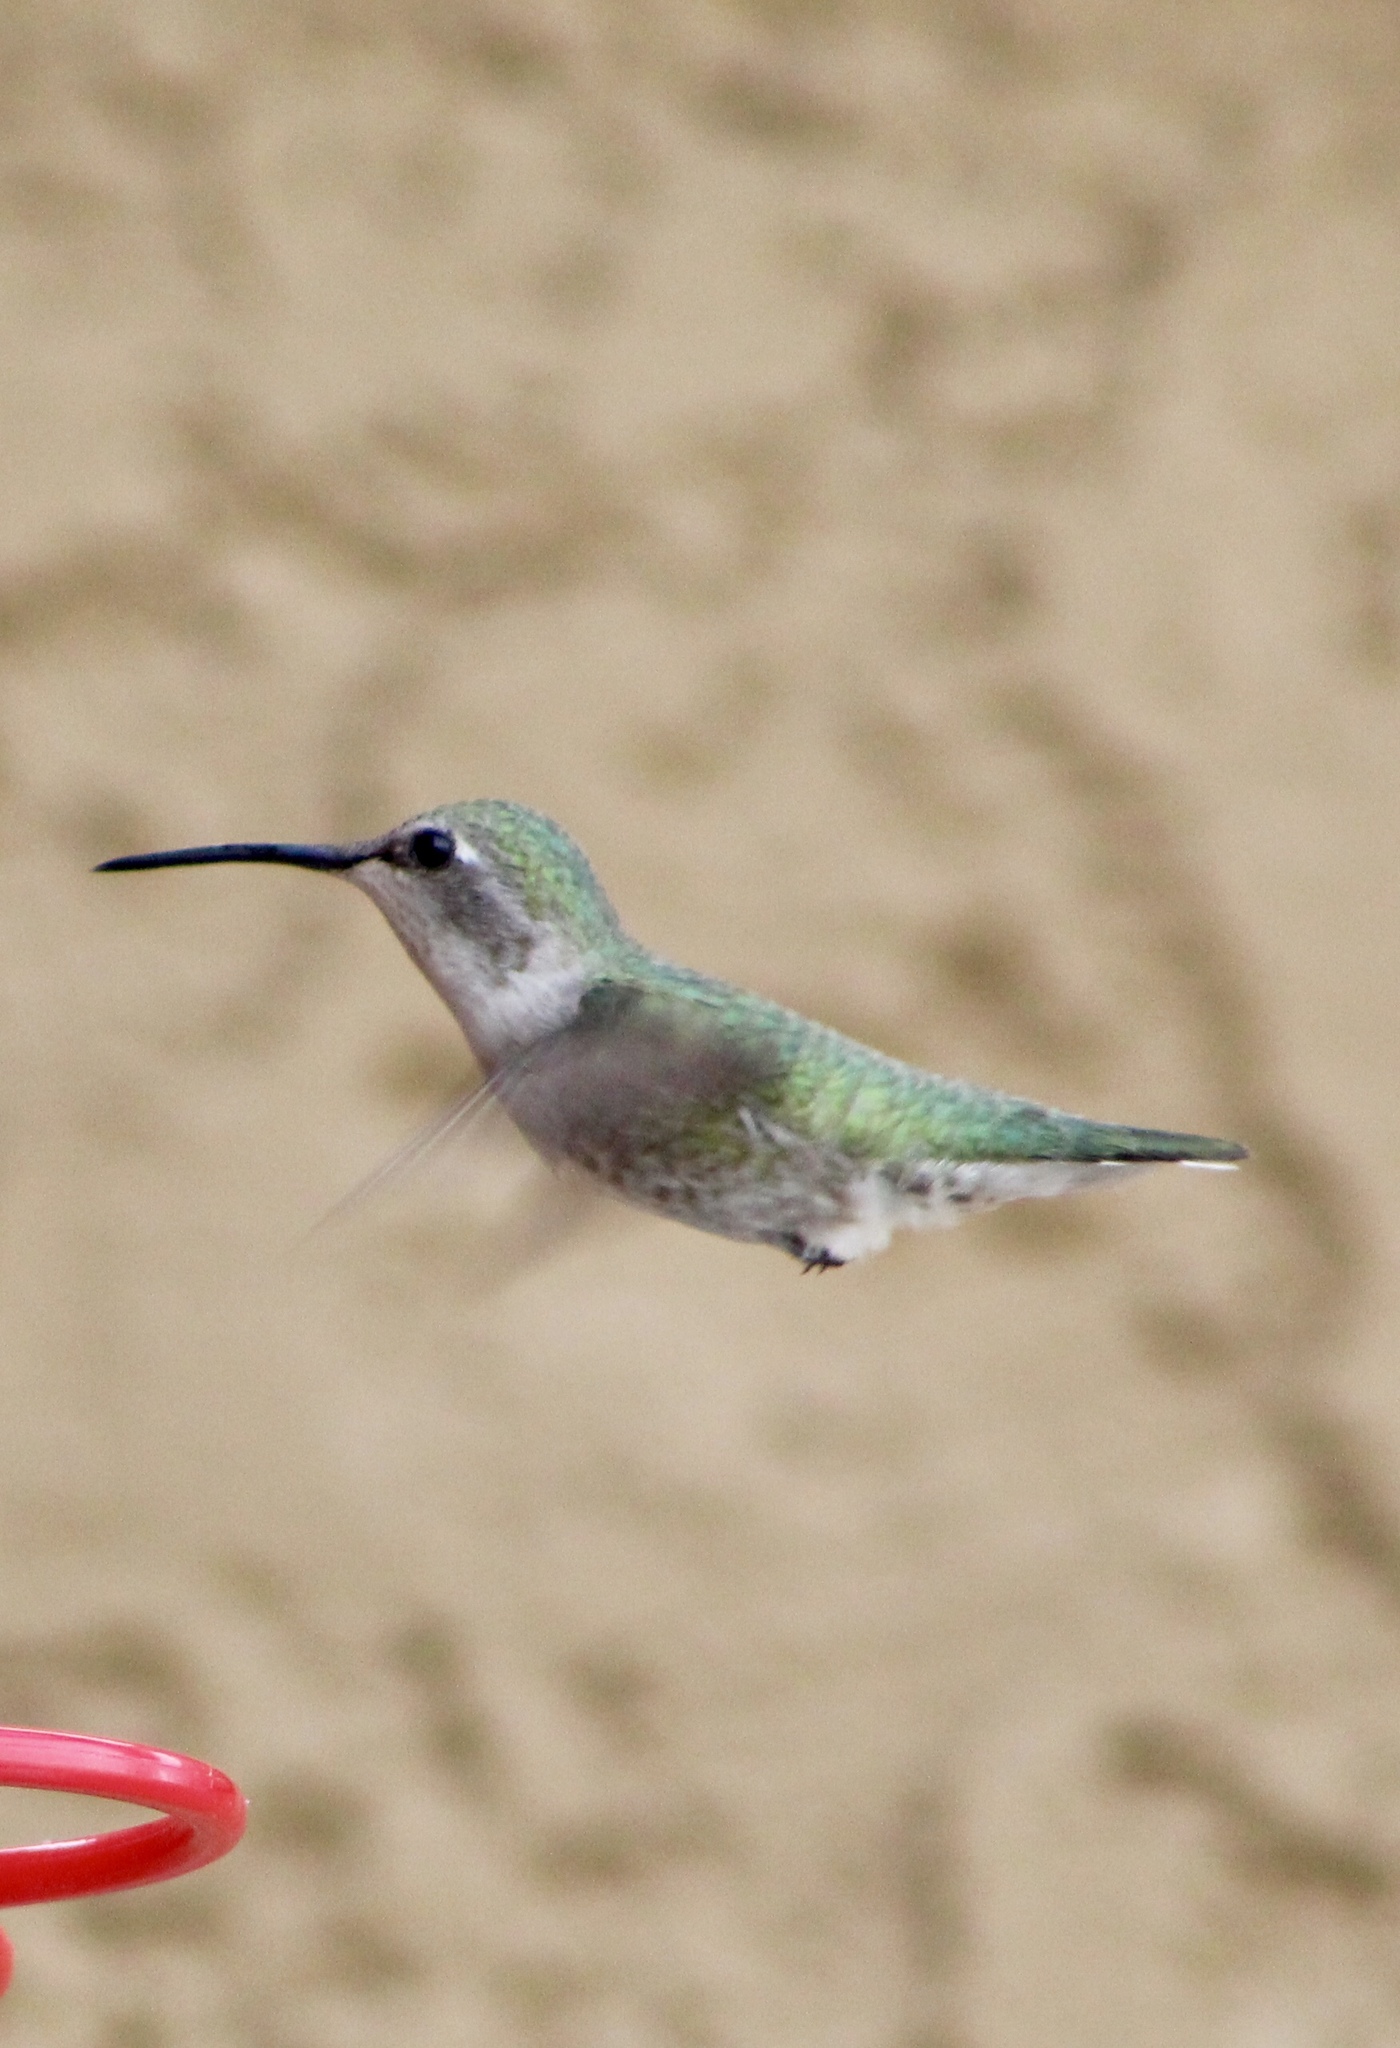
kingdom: Animalia
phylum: Chordata
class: Aves
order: Apodiformes
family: Trochilidae
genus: Calypte
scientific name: Calypte costae
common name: Costa's hummingbird
